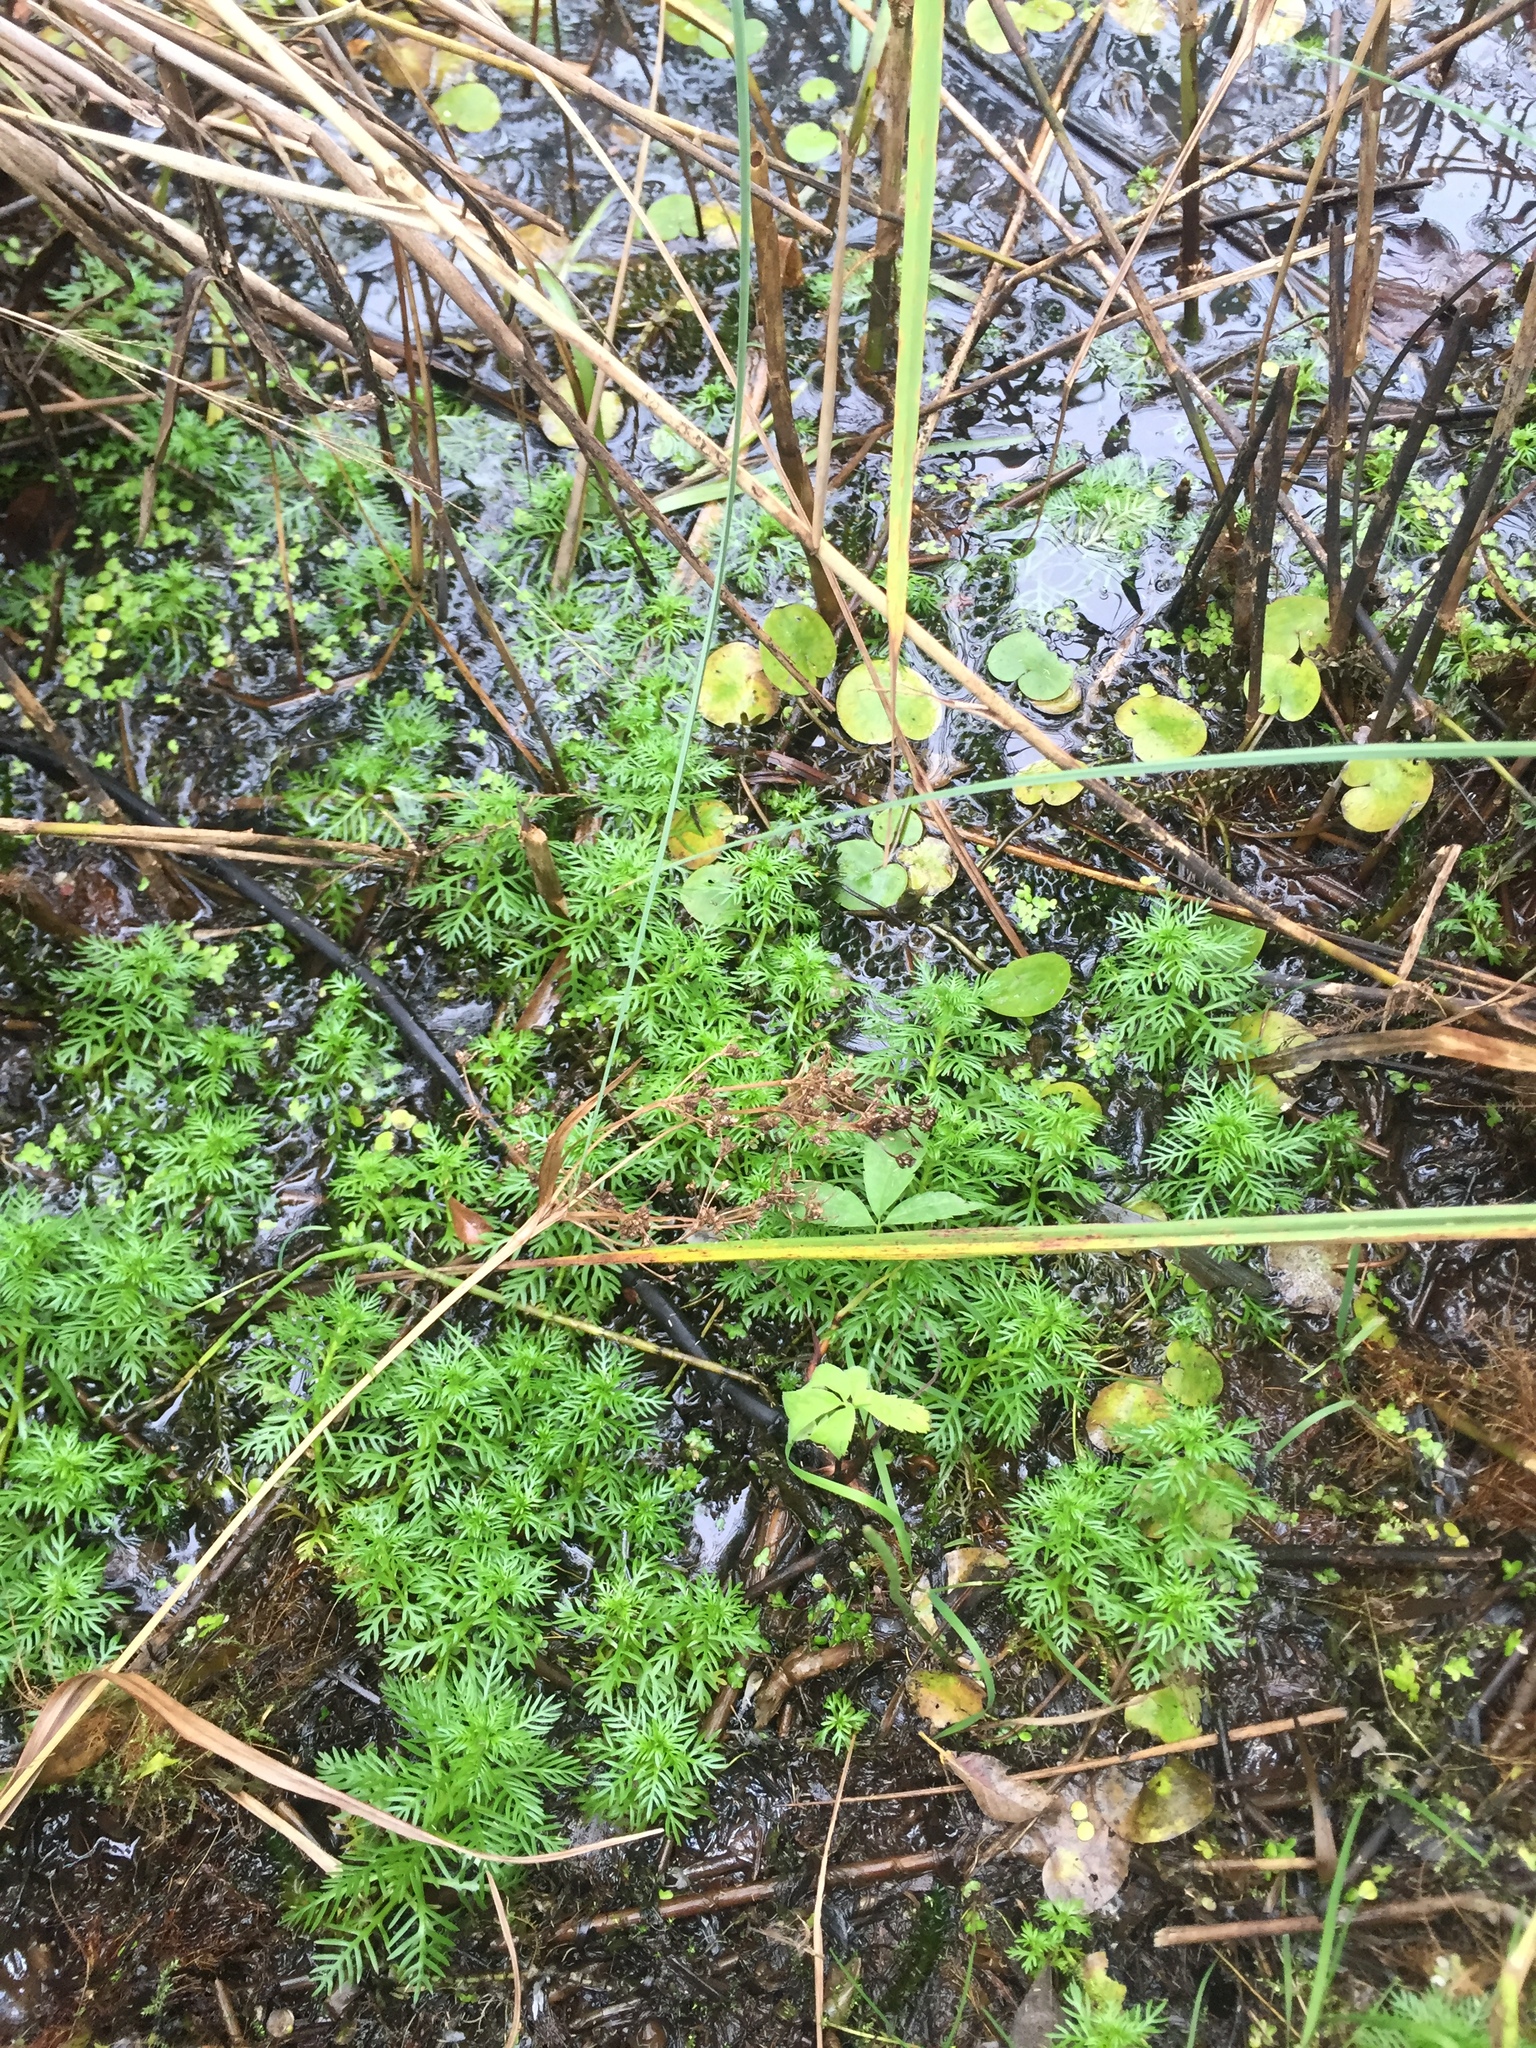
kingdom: Plantae
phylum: Tracheophyta
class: Magnoliopsida
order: Ericales
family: Primulaceae
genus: Hottonia
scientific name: Hottonia palustris
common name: Water-violet
